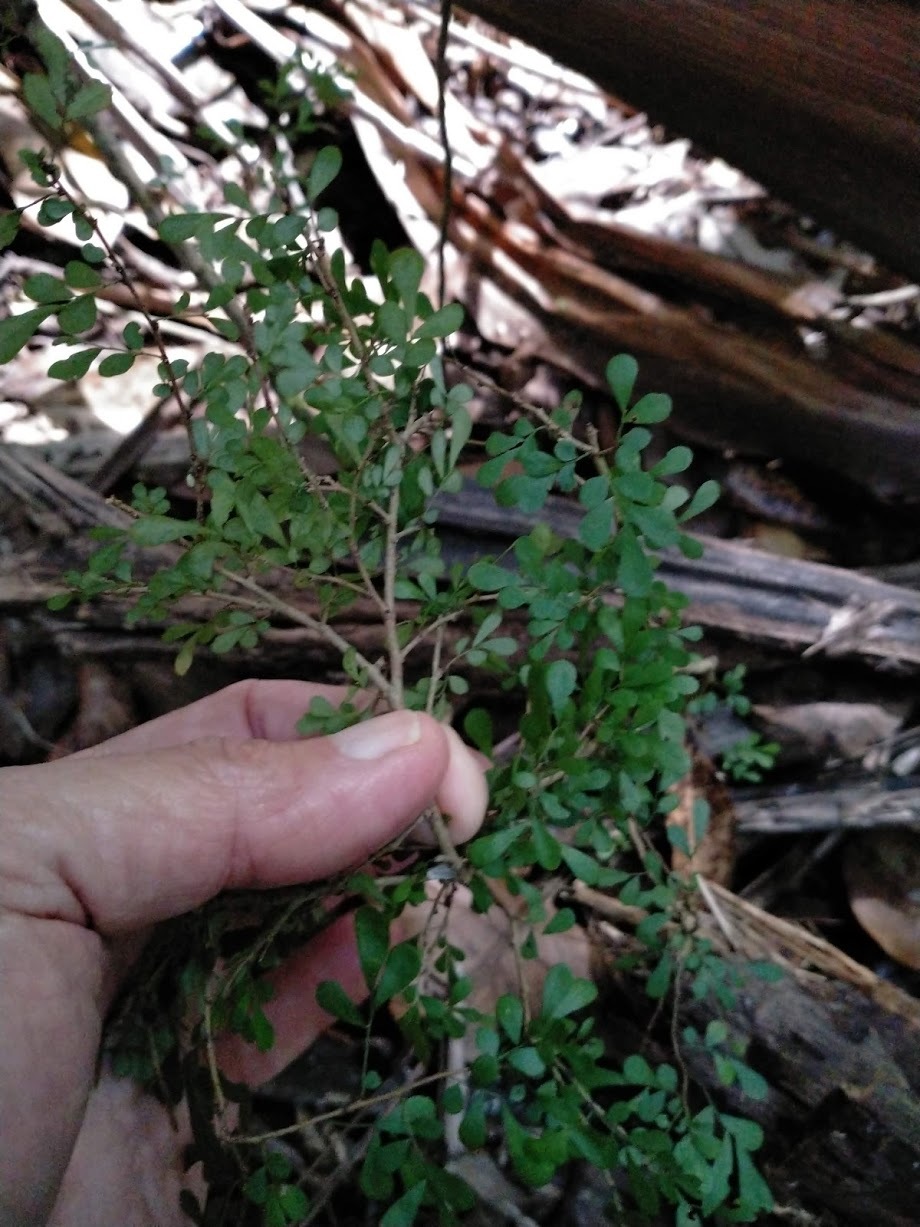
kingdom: Plantae
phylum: Tracheophyta
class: Magnoliopsida
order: Malpighiales
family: Phyllanthaceae
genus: Phyllanthus
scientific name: Phyllanthus microcladus
